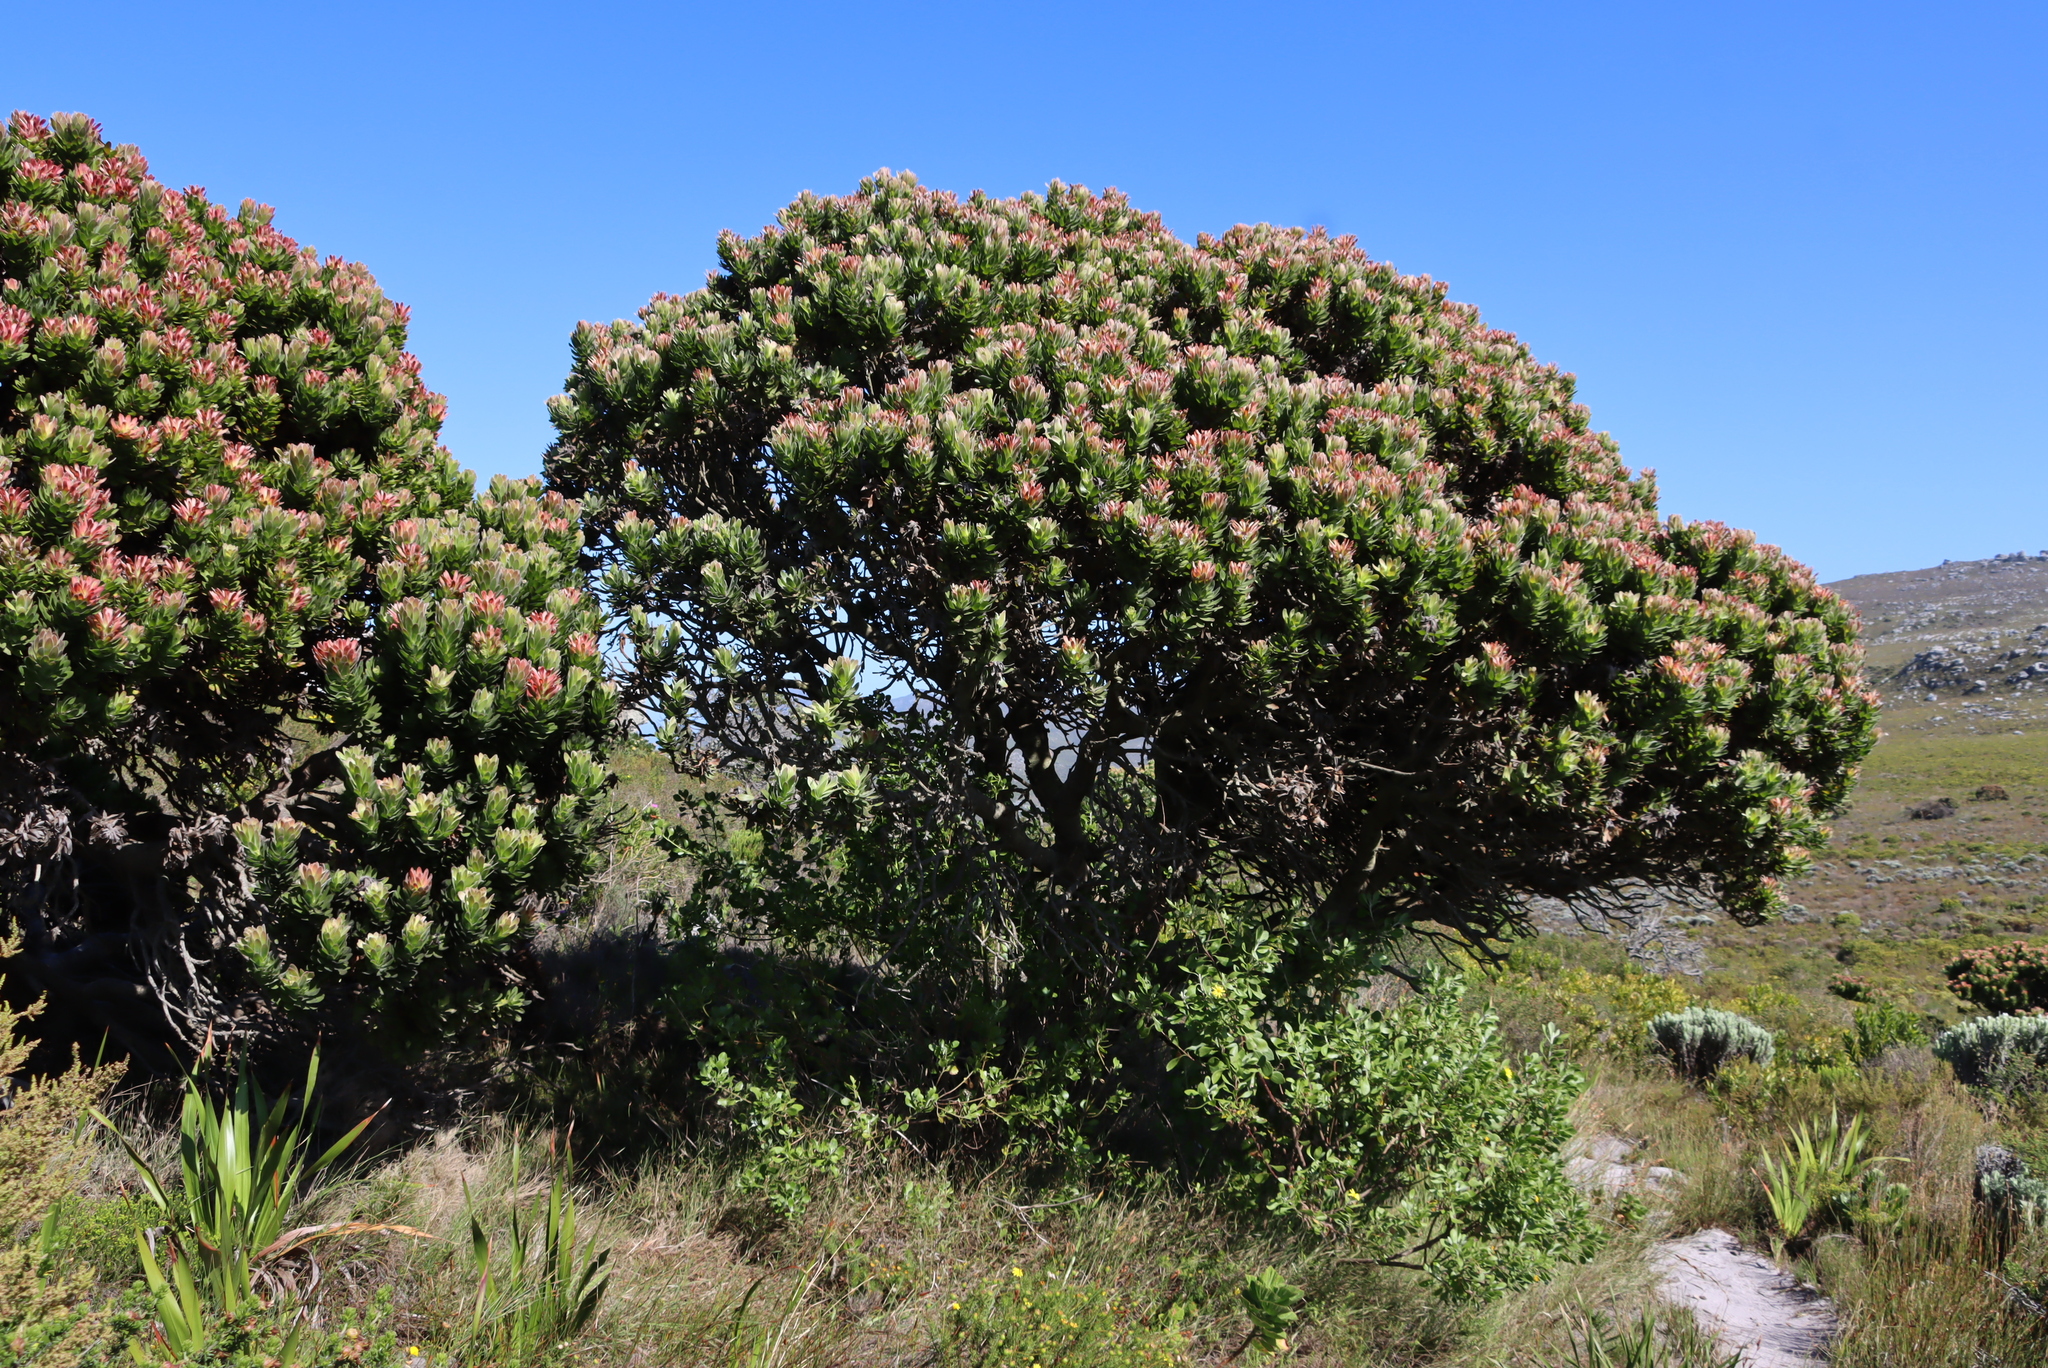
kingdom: Plantae
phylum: Tracheophyta
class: Magnoliopsida
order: Proteales
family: Proteaceae
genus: Mimetes
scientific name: Mimetes fimbriifolius
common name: Fringed bottlebrush
